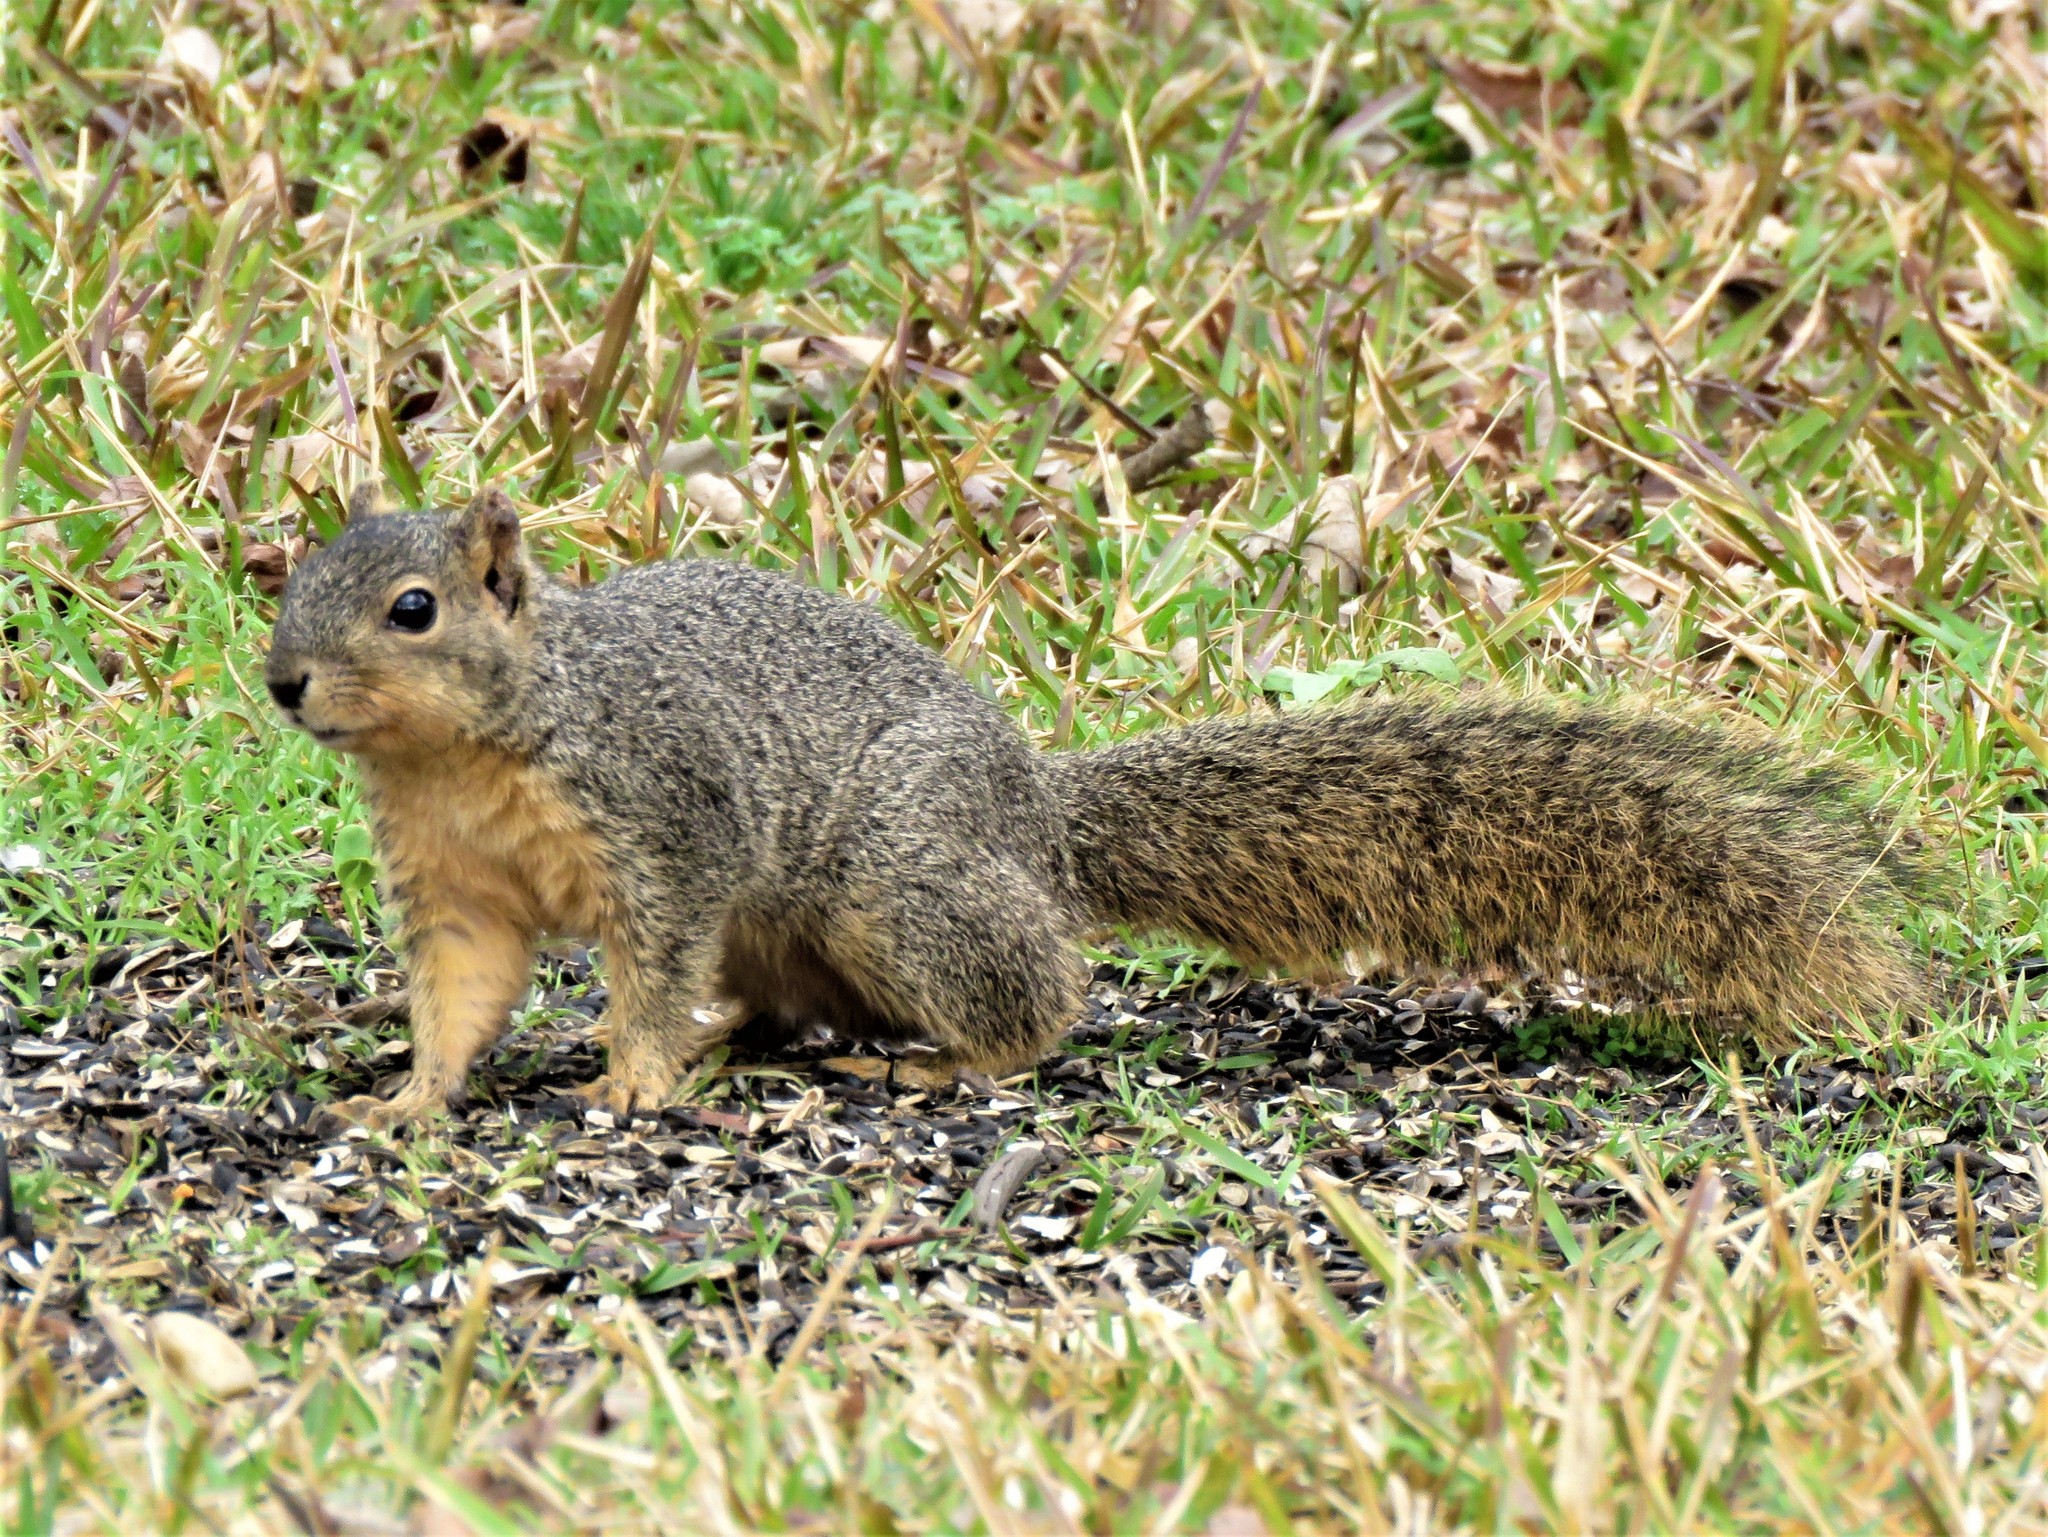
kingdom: Animalia
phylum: Chordata
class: Mammalia
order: Rodentia
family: Sciuridae
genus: Sciurus
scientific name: Sciurus niger
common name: Fox squirrel
